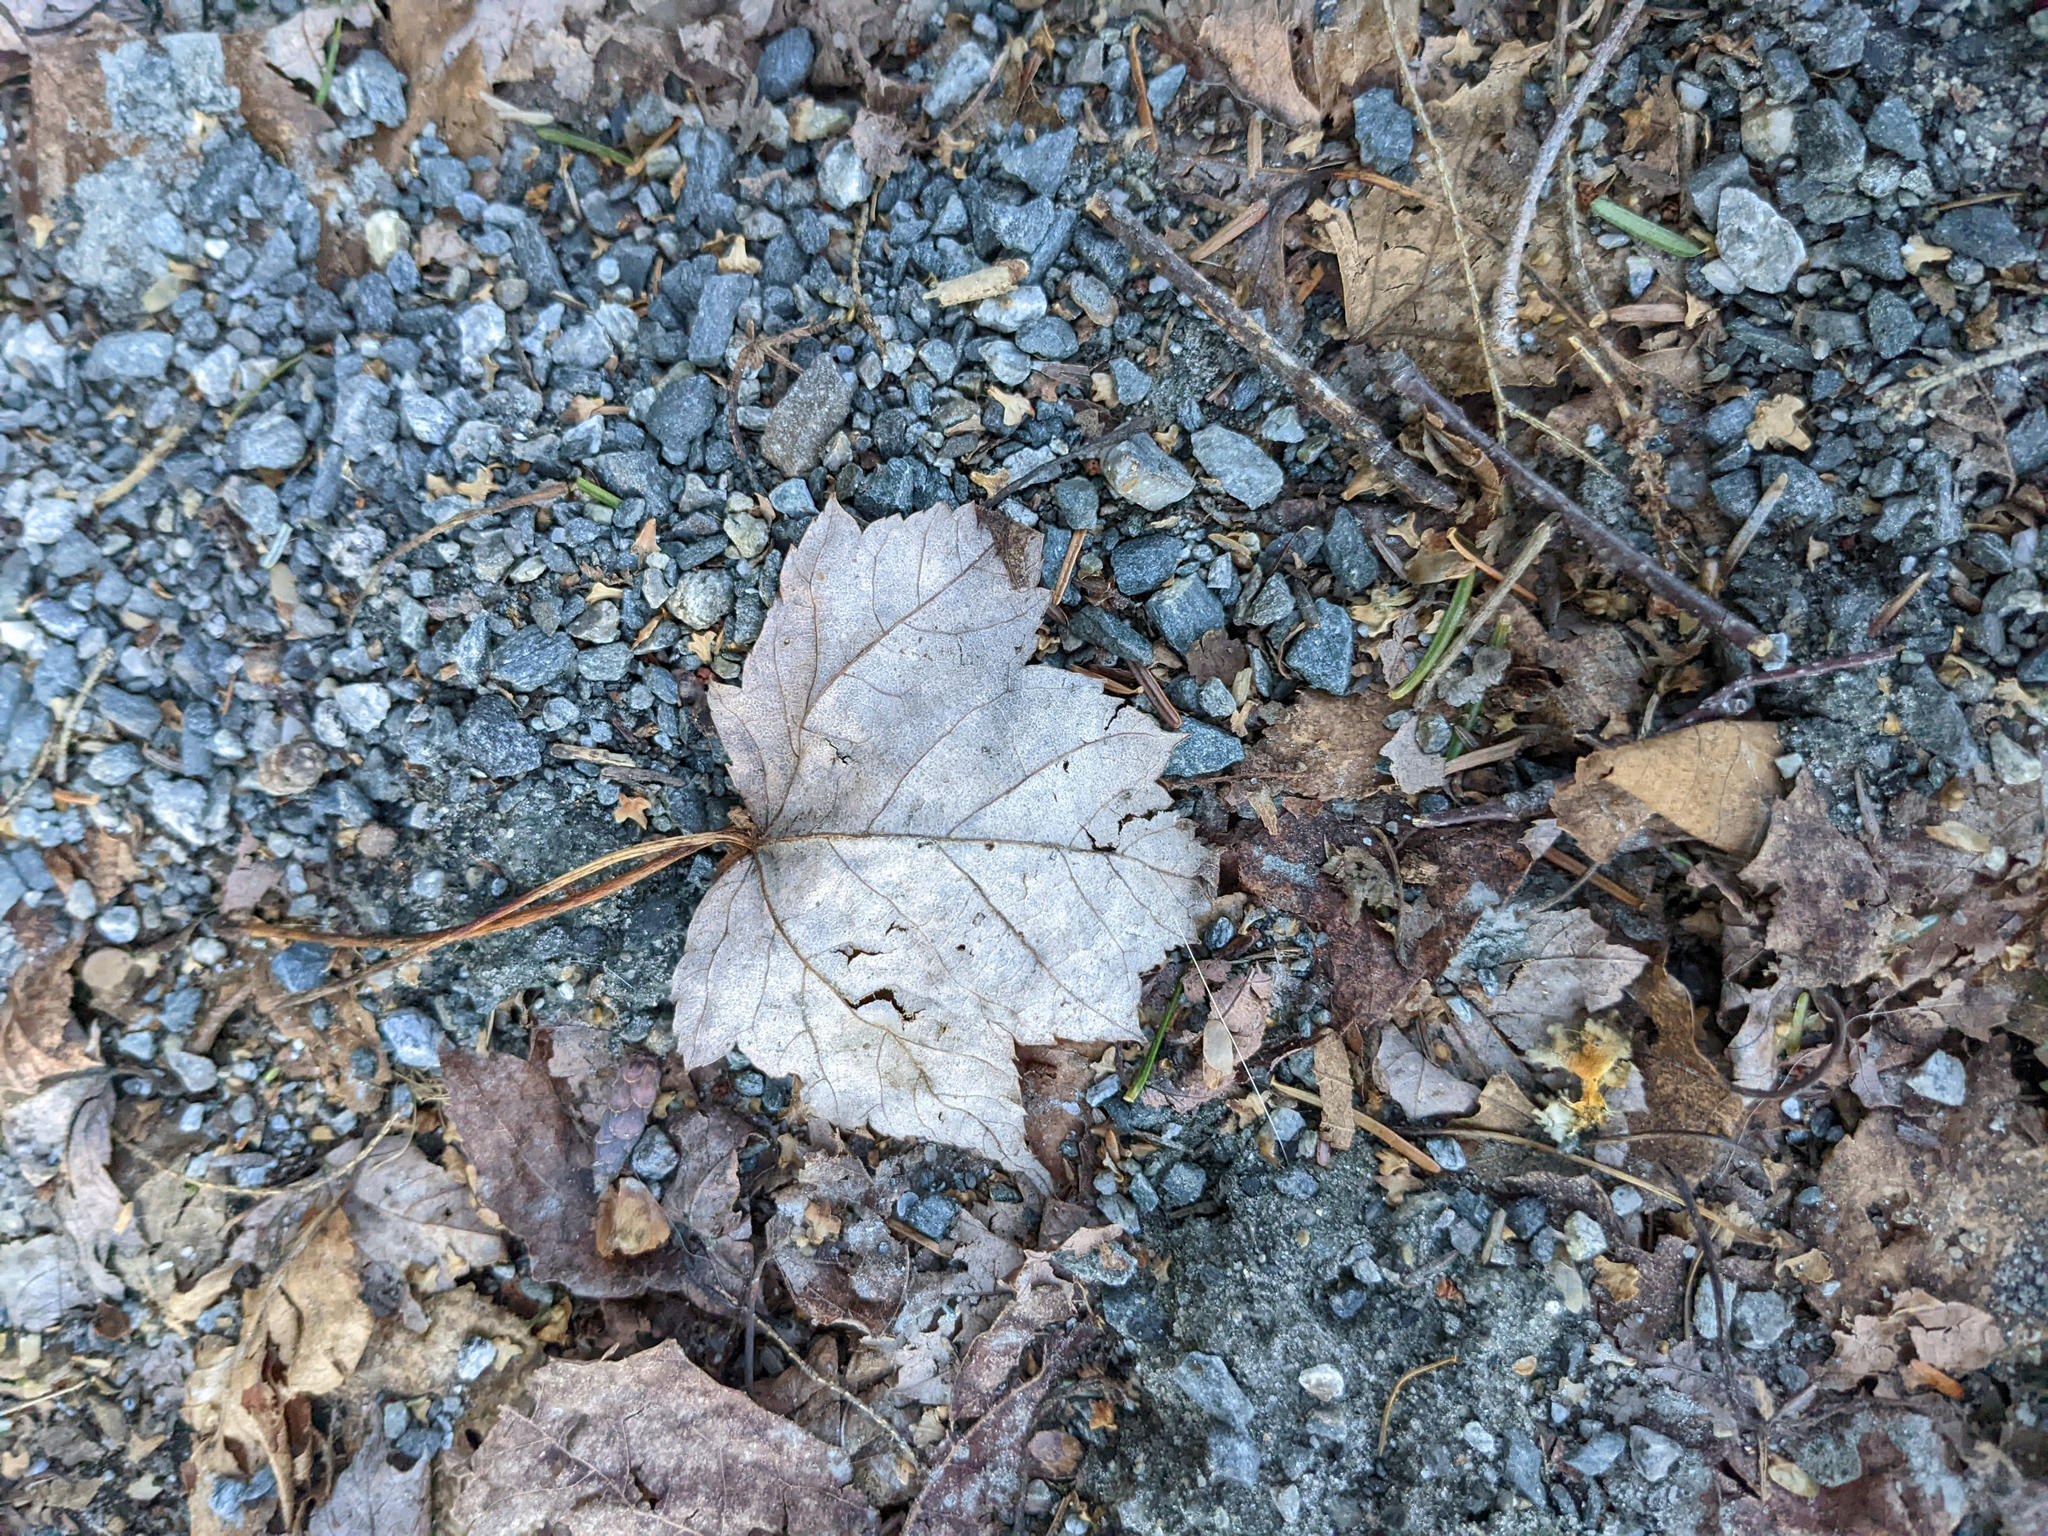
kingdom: Plantae
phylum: Tracheophyta
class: Magnoliopsida
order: Sapindales
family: Sapindaceae
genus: Acer
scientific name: Acer rubrum
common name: Red maple
